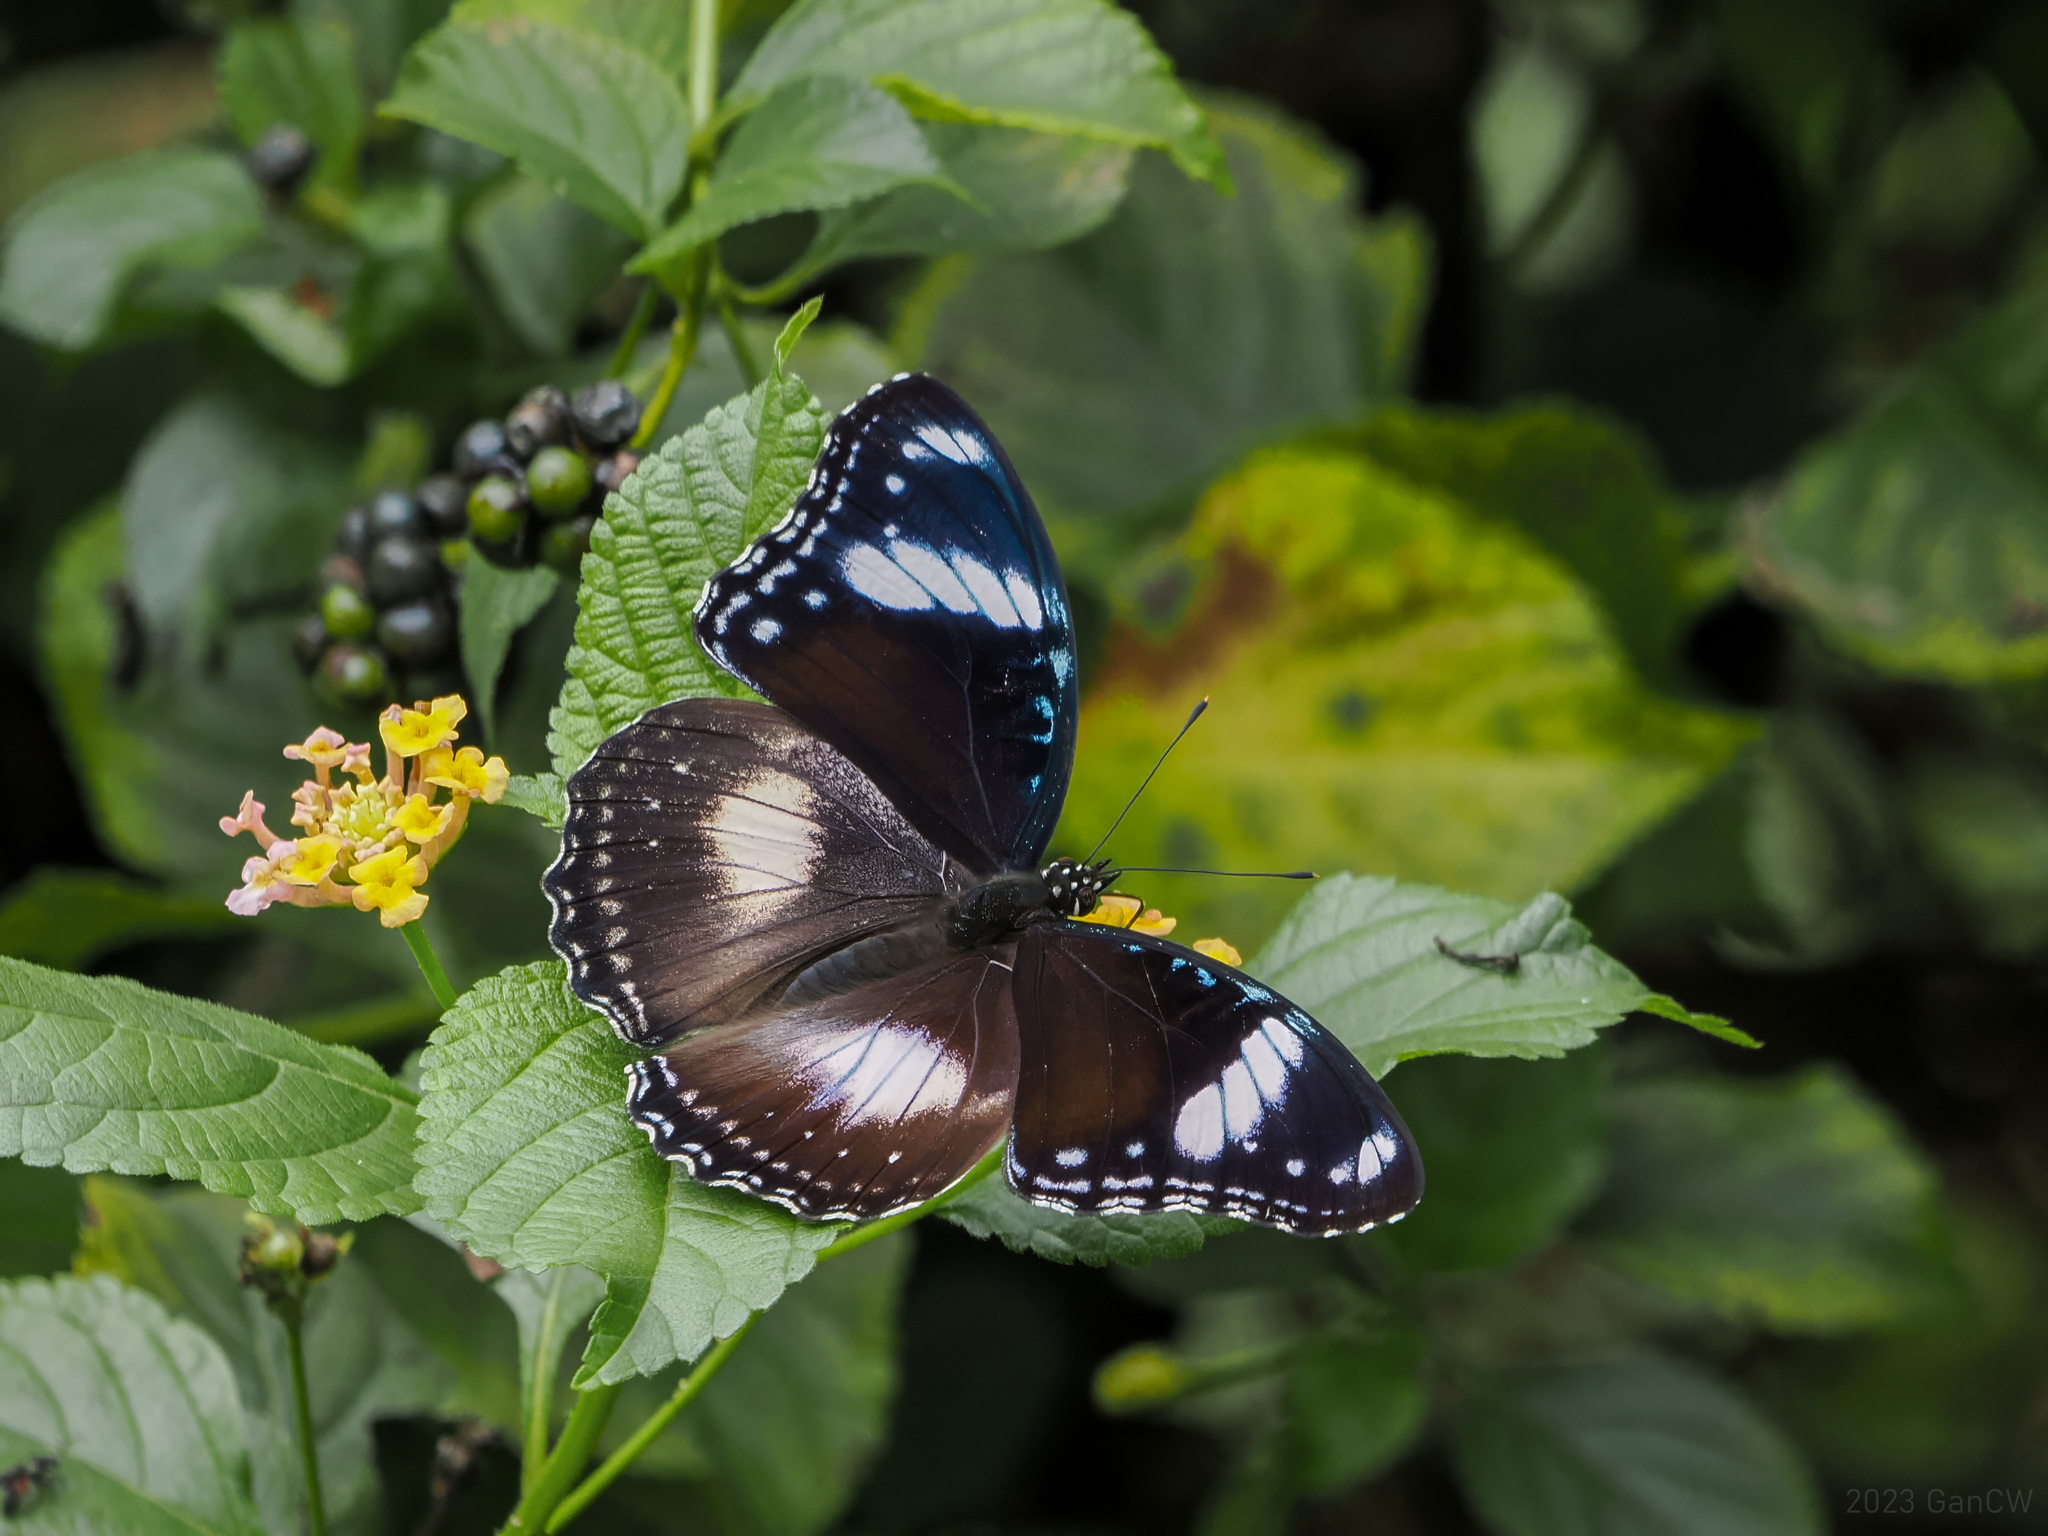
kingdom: Animalia
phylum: Arthropoda
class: Insecta
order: Lepidoptera
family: Nymphalidae
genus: Hypolimnas
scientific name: Hypolimnas bolina
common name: Great eggfly
